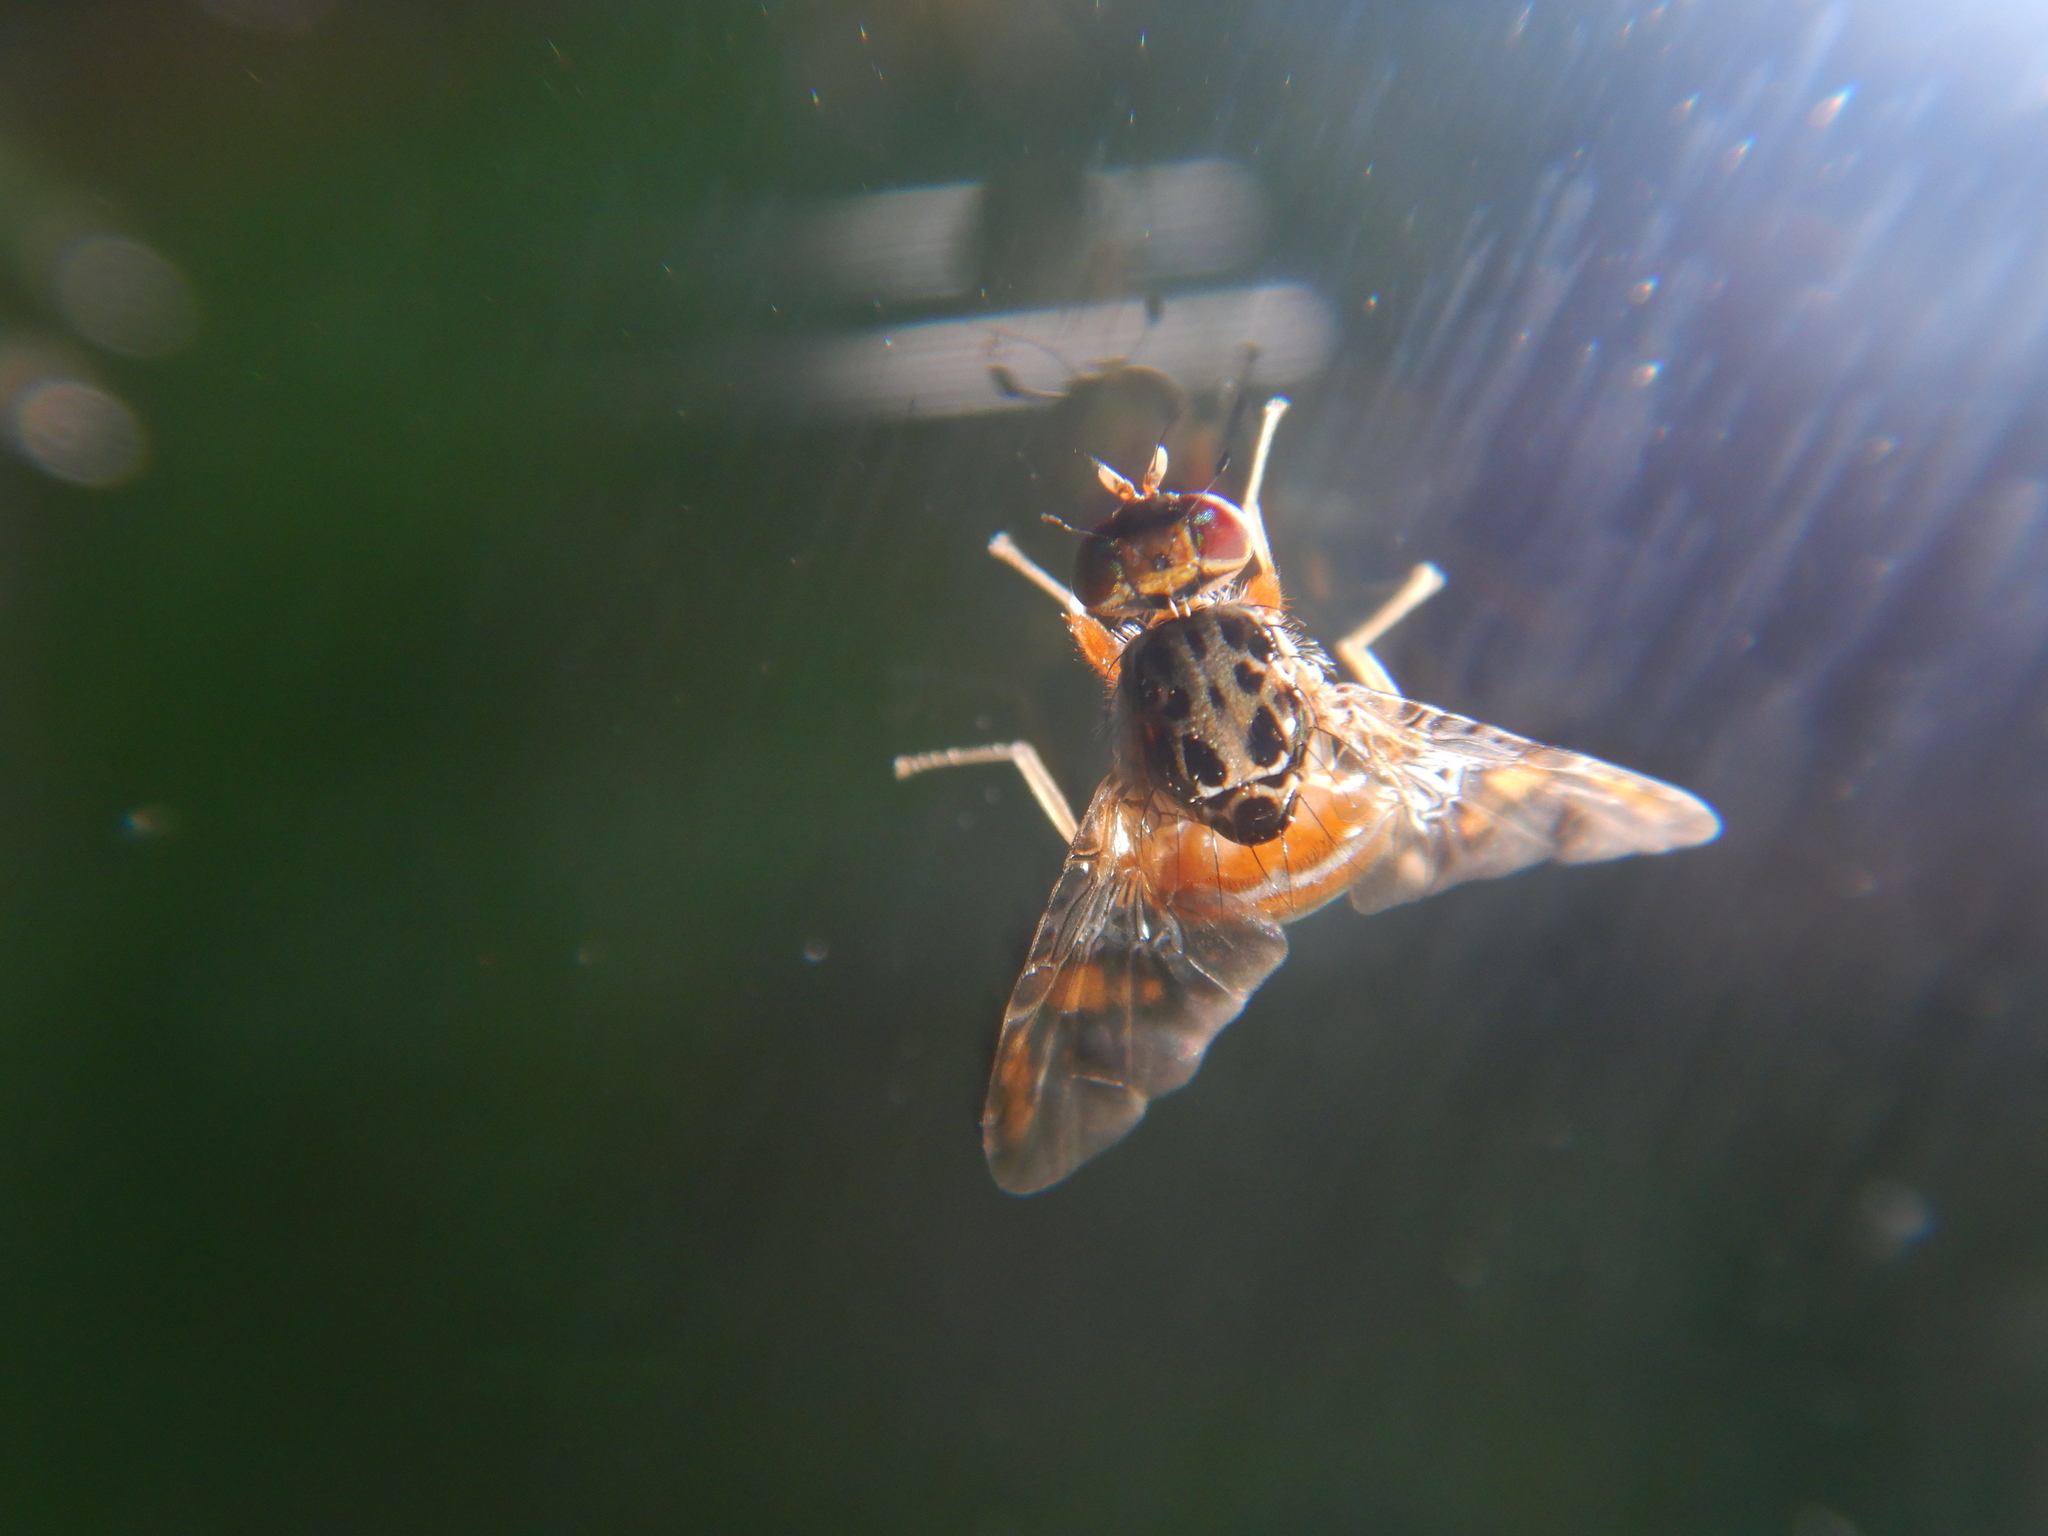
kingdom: Animalia
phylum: Arthropoda
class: Insecta
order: Diptera
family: Tephritidae
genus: Ceratitis
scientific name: Ceratitis capitata
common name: Mediterranean fruit fly
